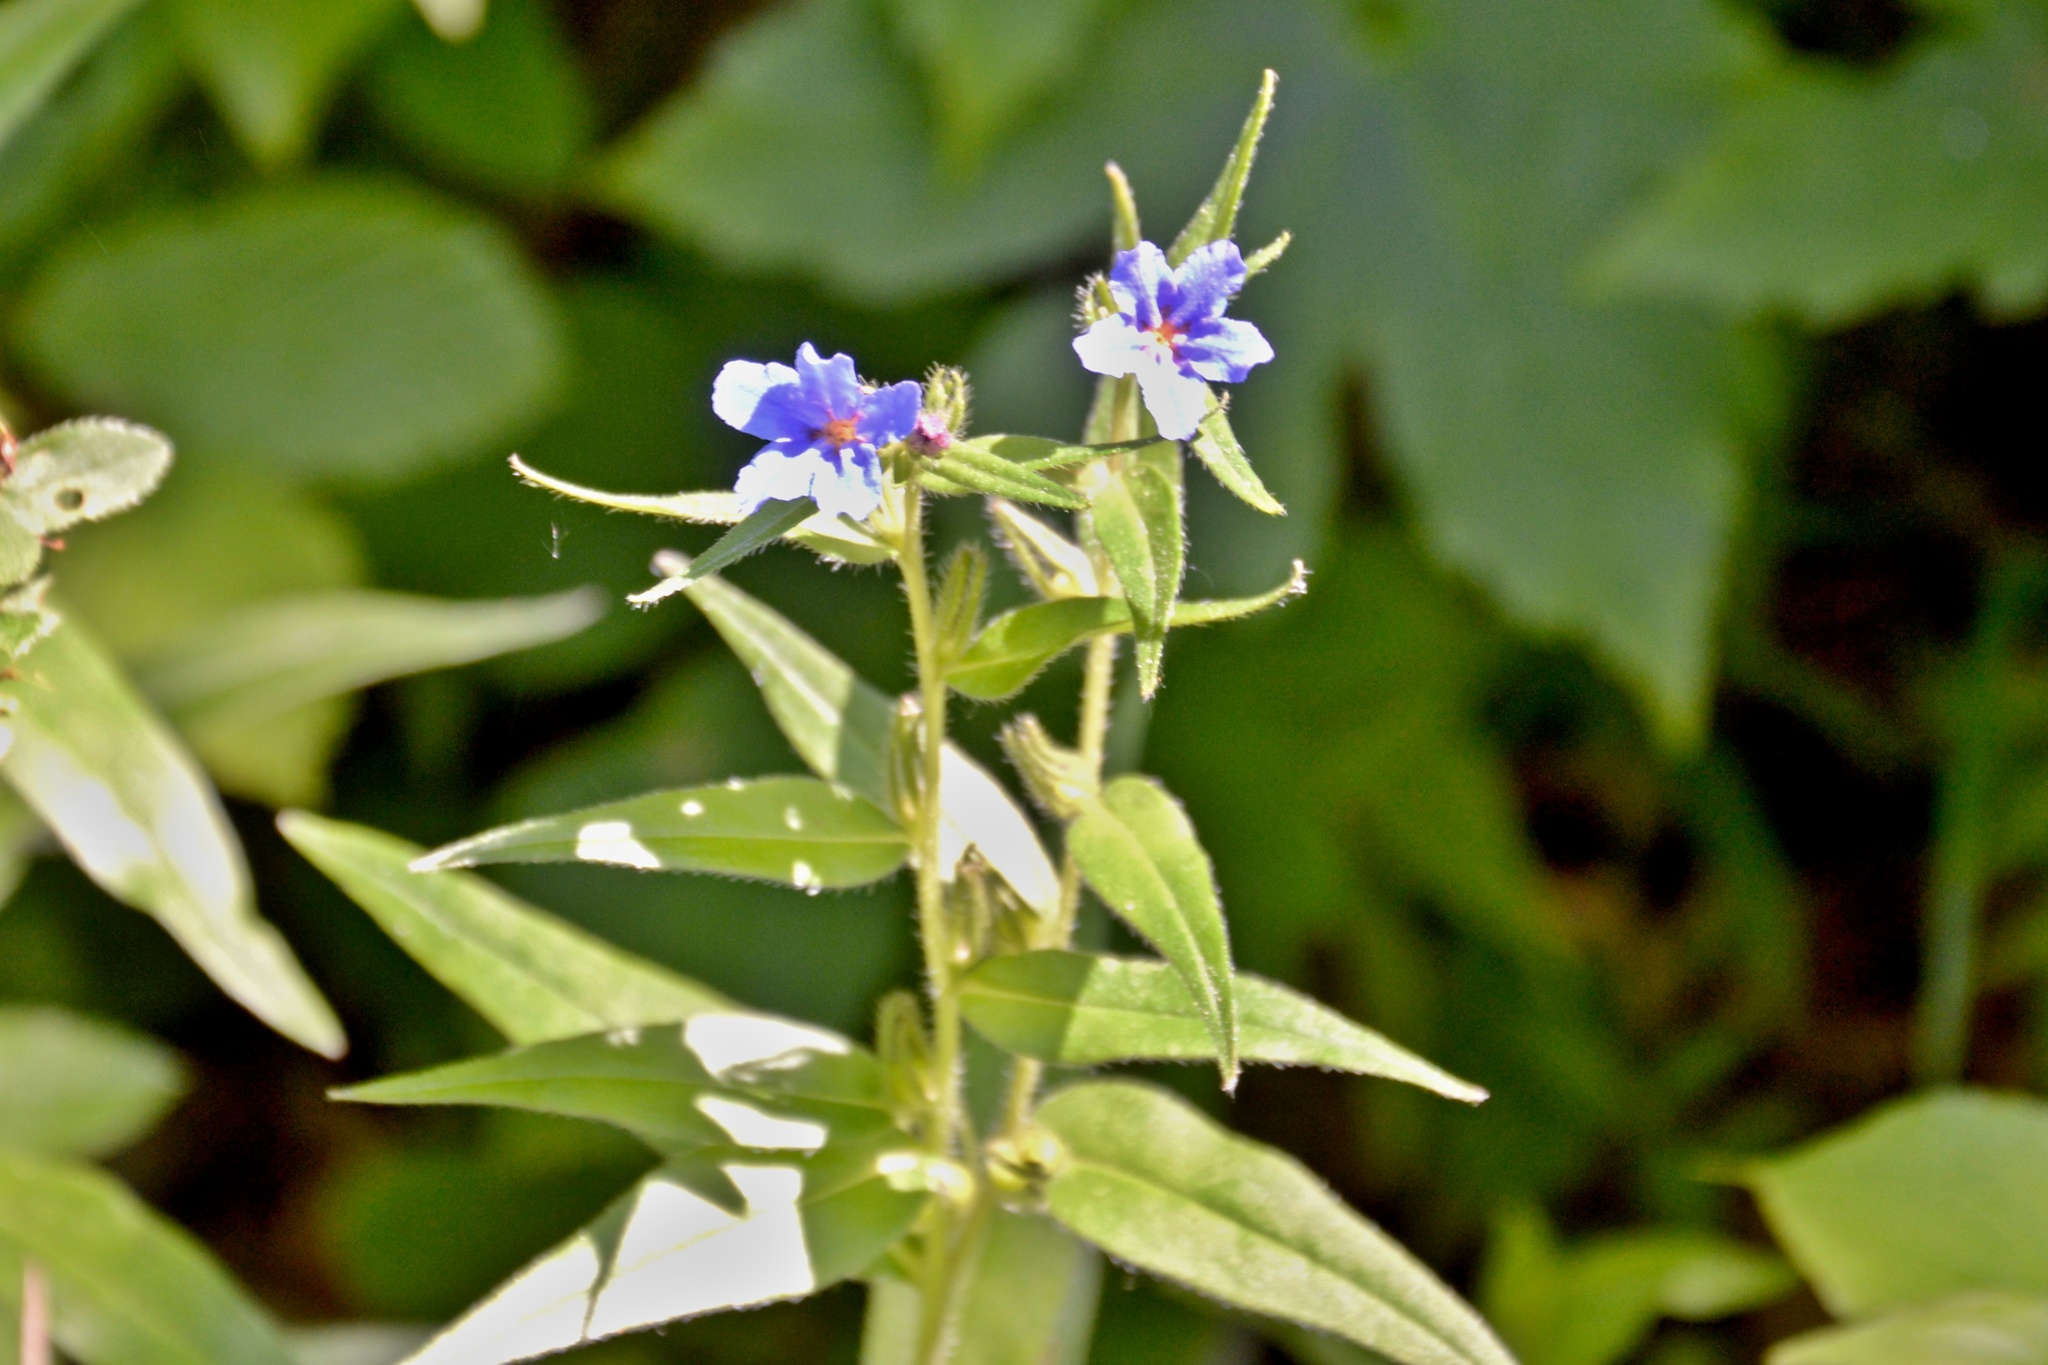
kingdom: Plantae
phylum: Tracheophyta
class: Magnoliopsida
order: Boraginales
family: Boraginaceae
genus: Aegonychon
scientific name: Aegonychon purpurocaeruleum
